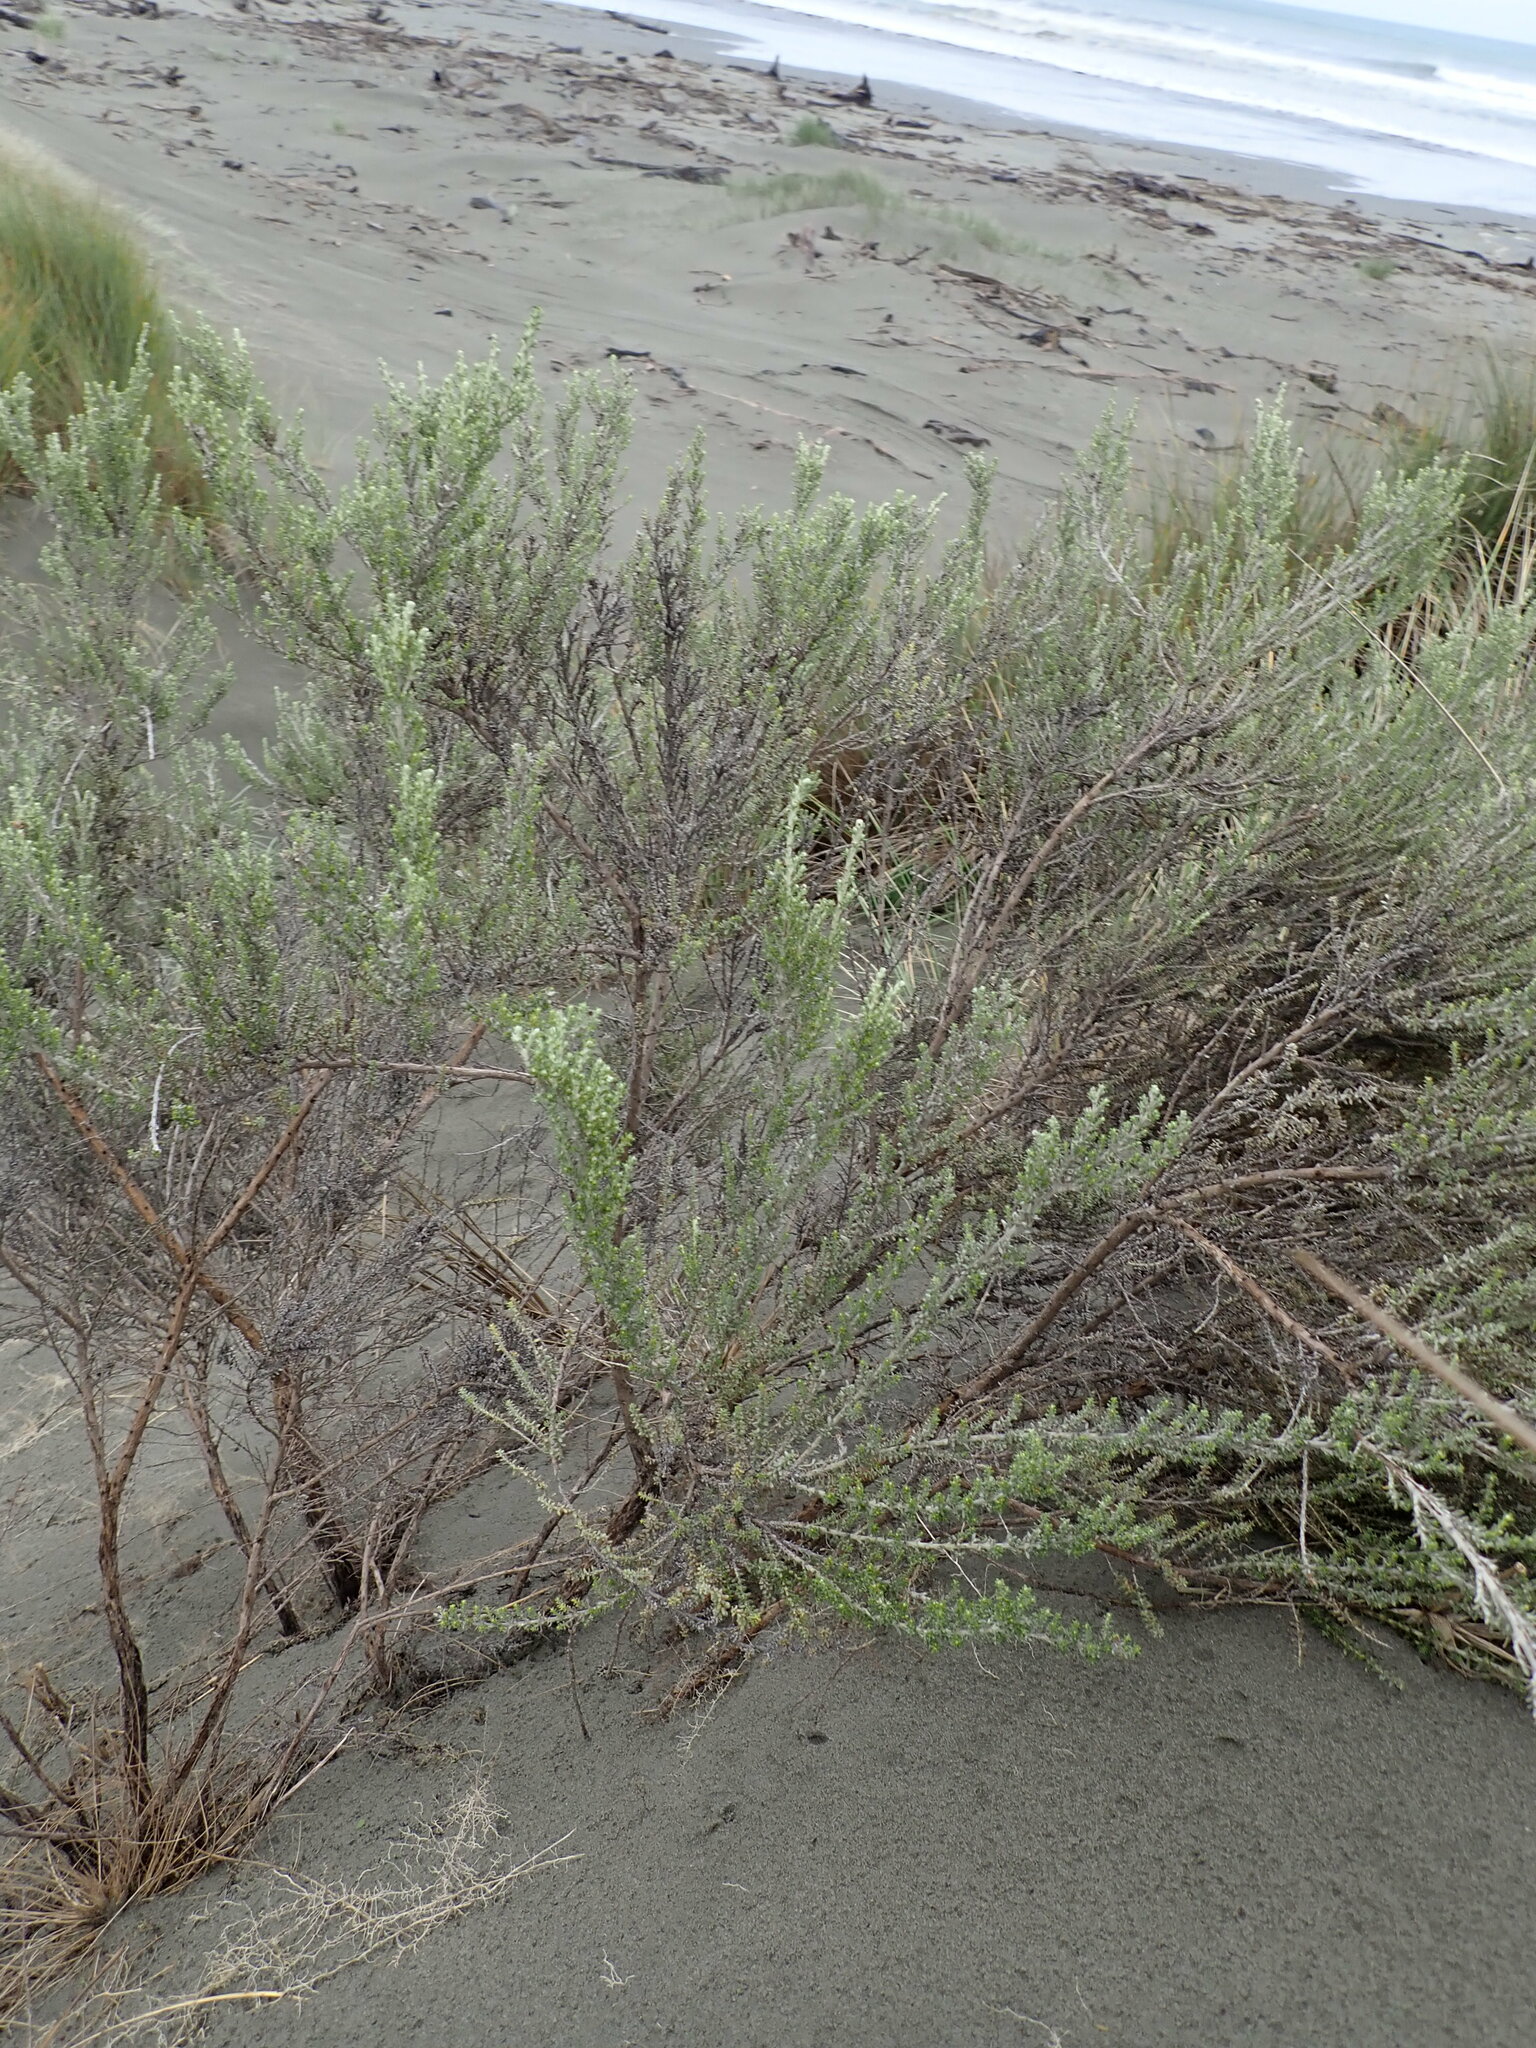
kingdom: Plantae
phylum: Tracheophyta
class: Magnoliopsida
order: Asterales
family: Asteraceae
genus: Ozothamnus
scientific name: Ozothamnus leptophyllus
